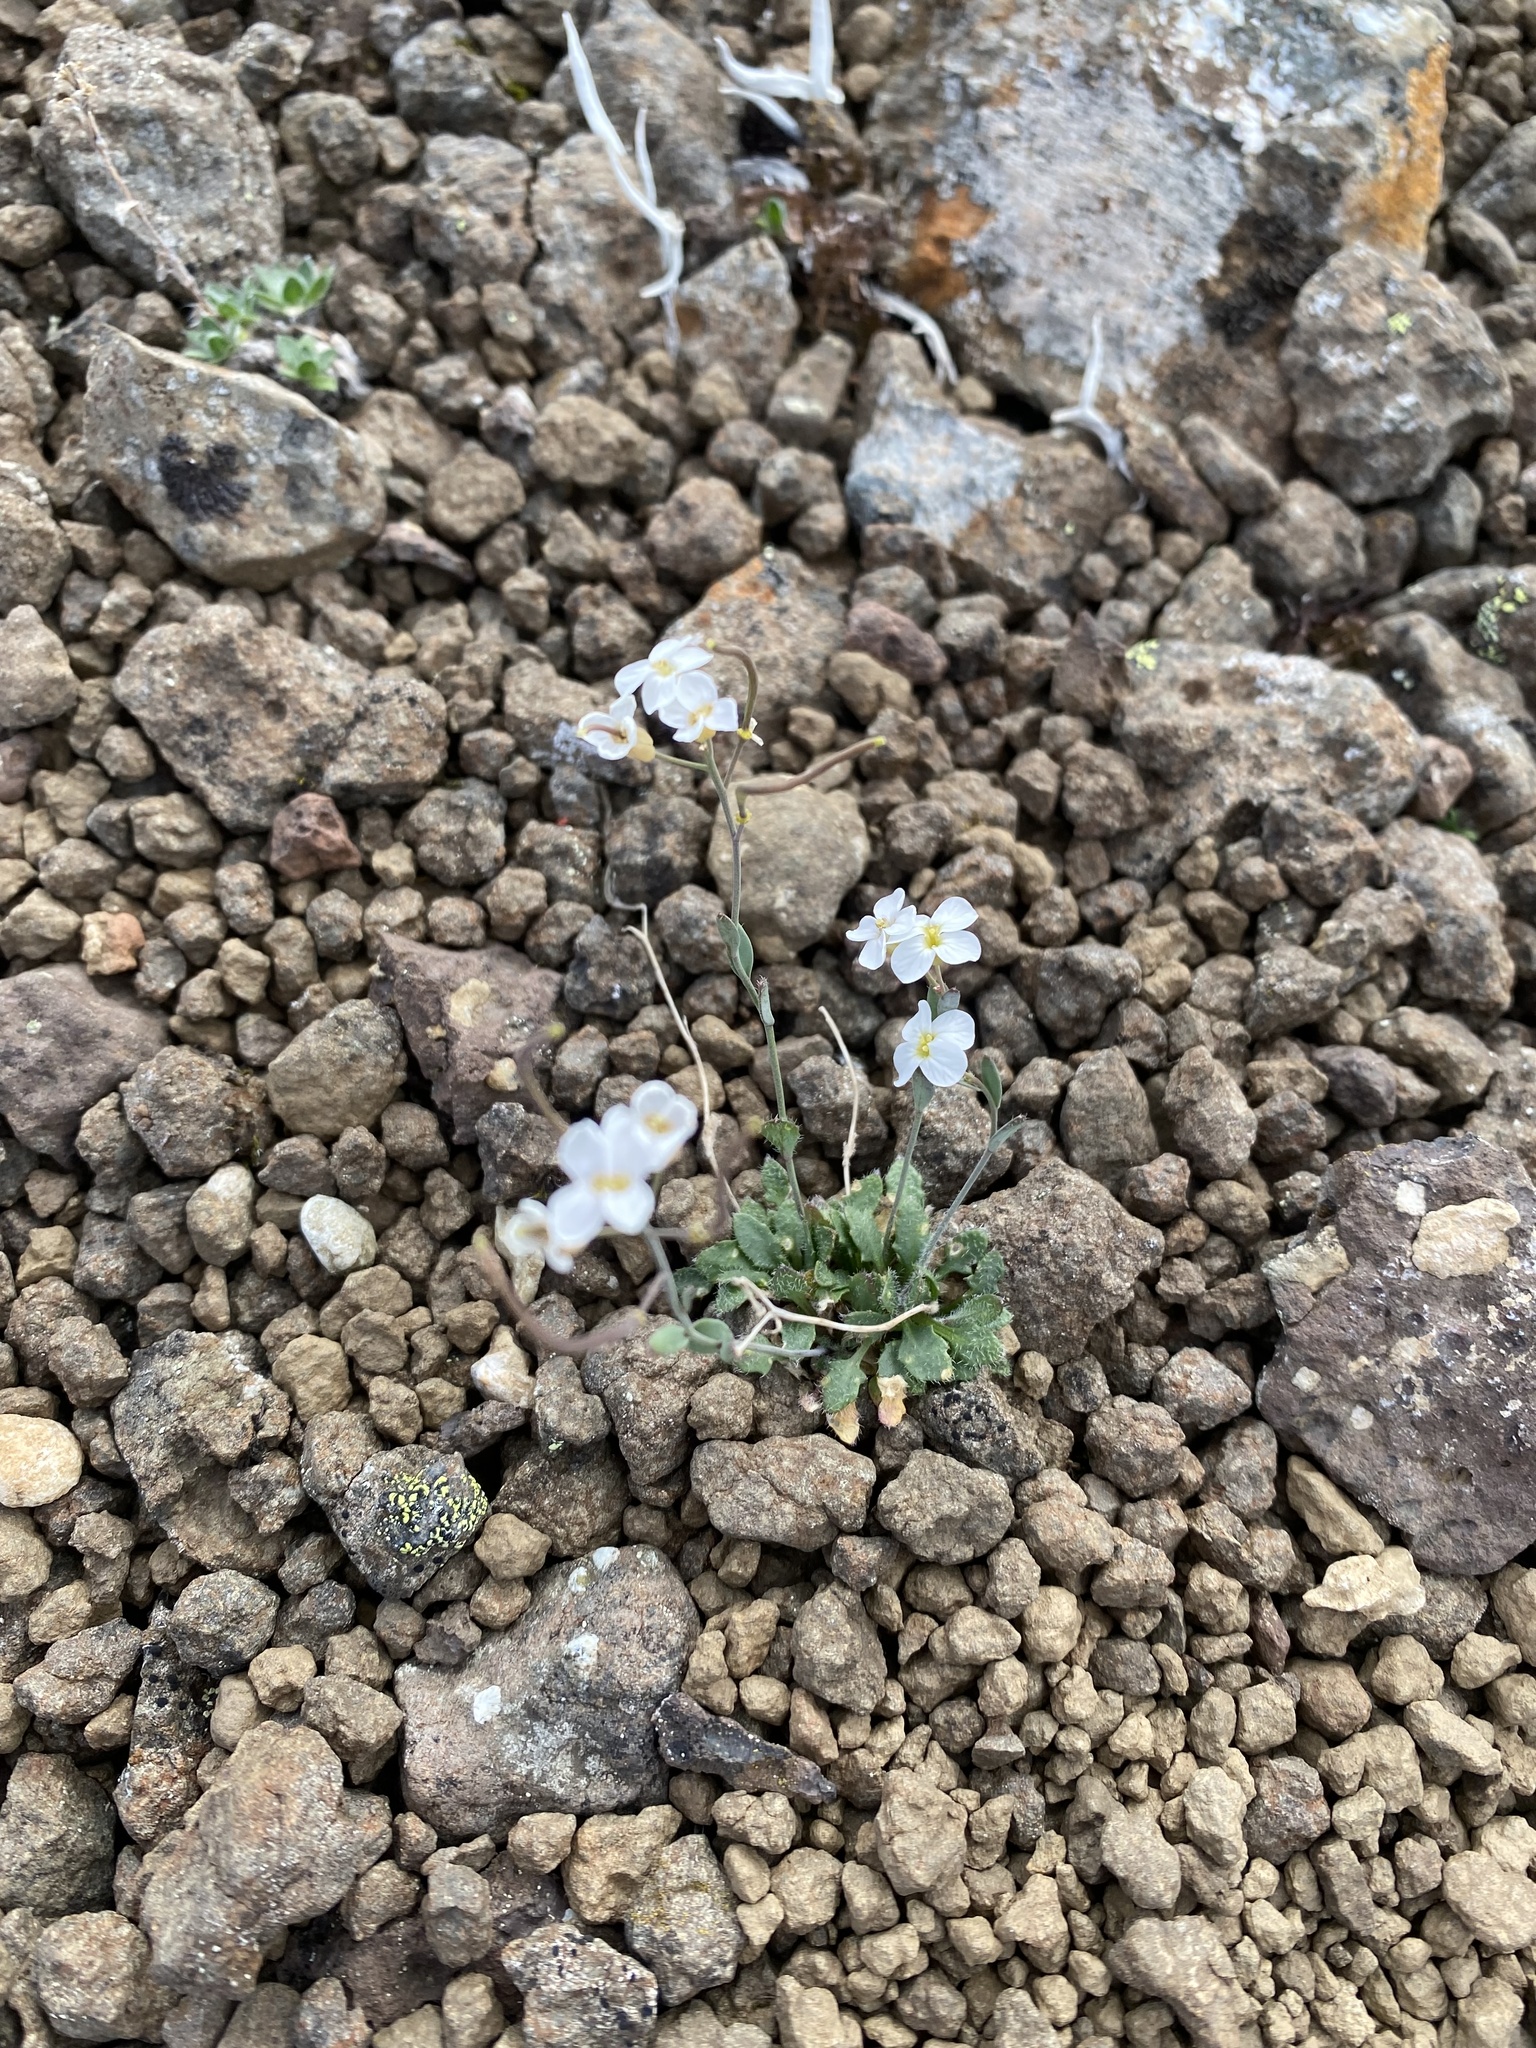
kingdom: Plantae
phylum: Tracheophyta
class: Magnoliopsida
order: Brassicales
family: Brassicaceae
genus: Arabidopsis
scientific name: Arabidopsis lyrata
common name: Lyrate rockcress
